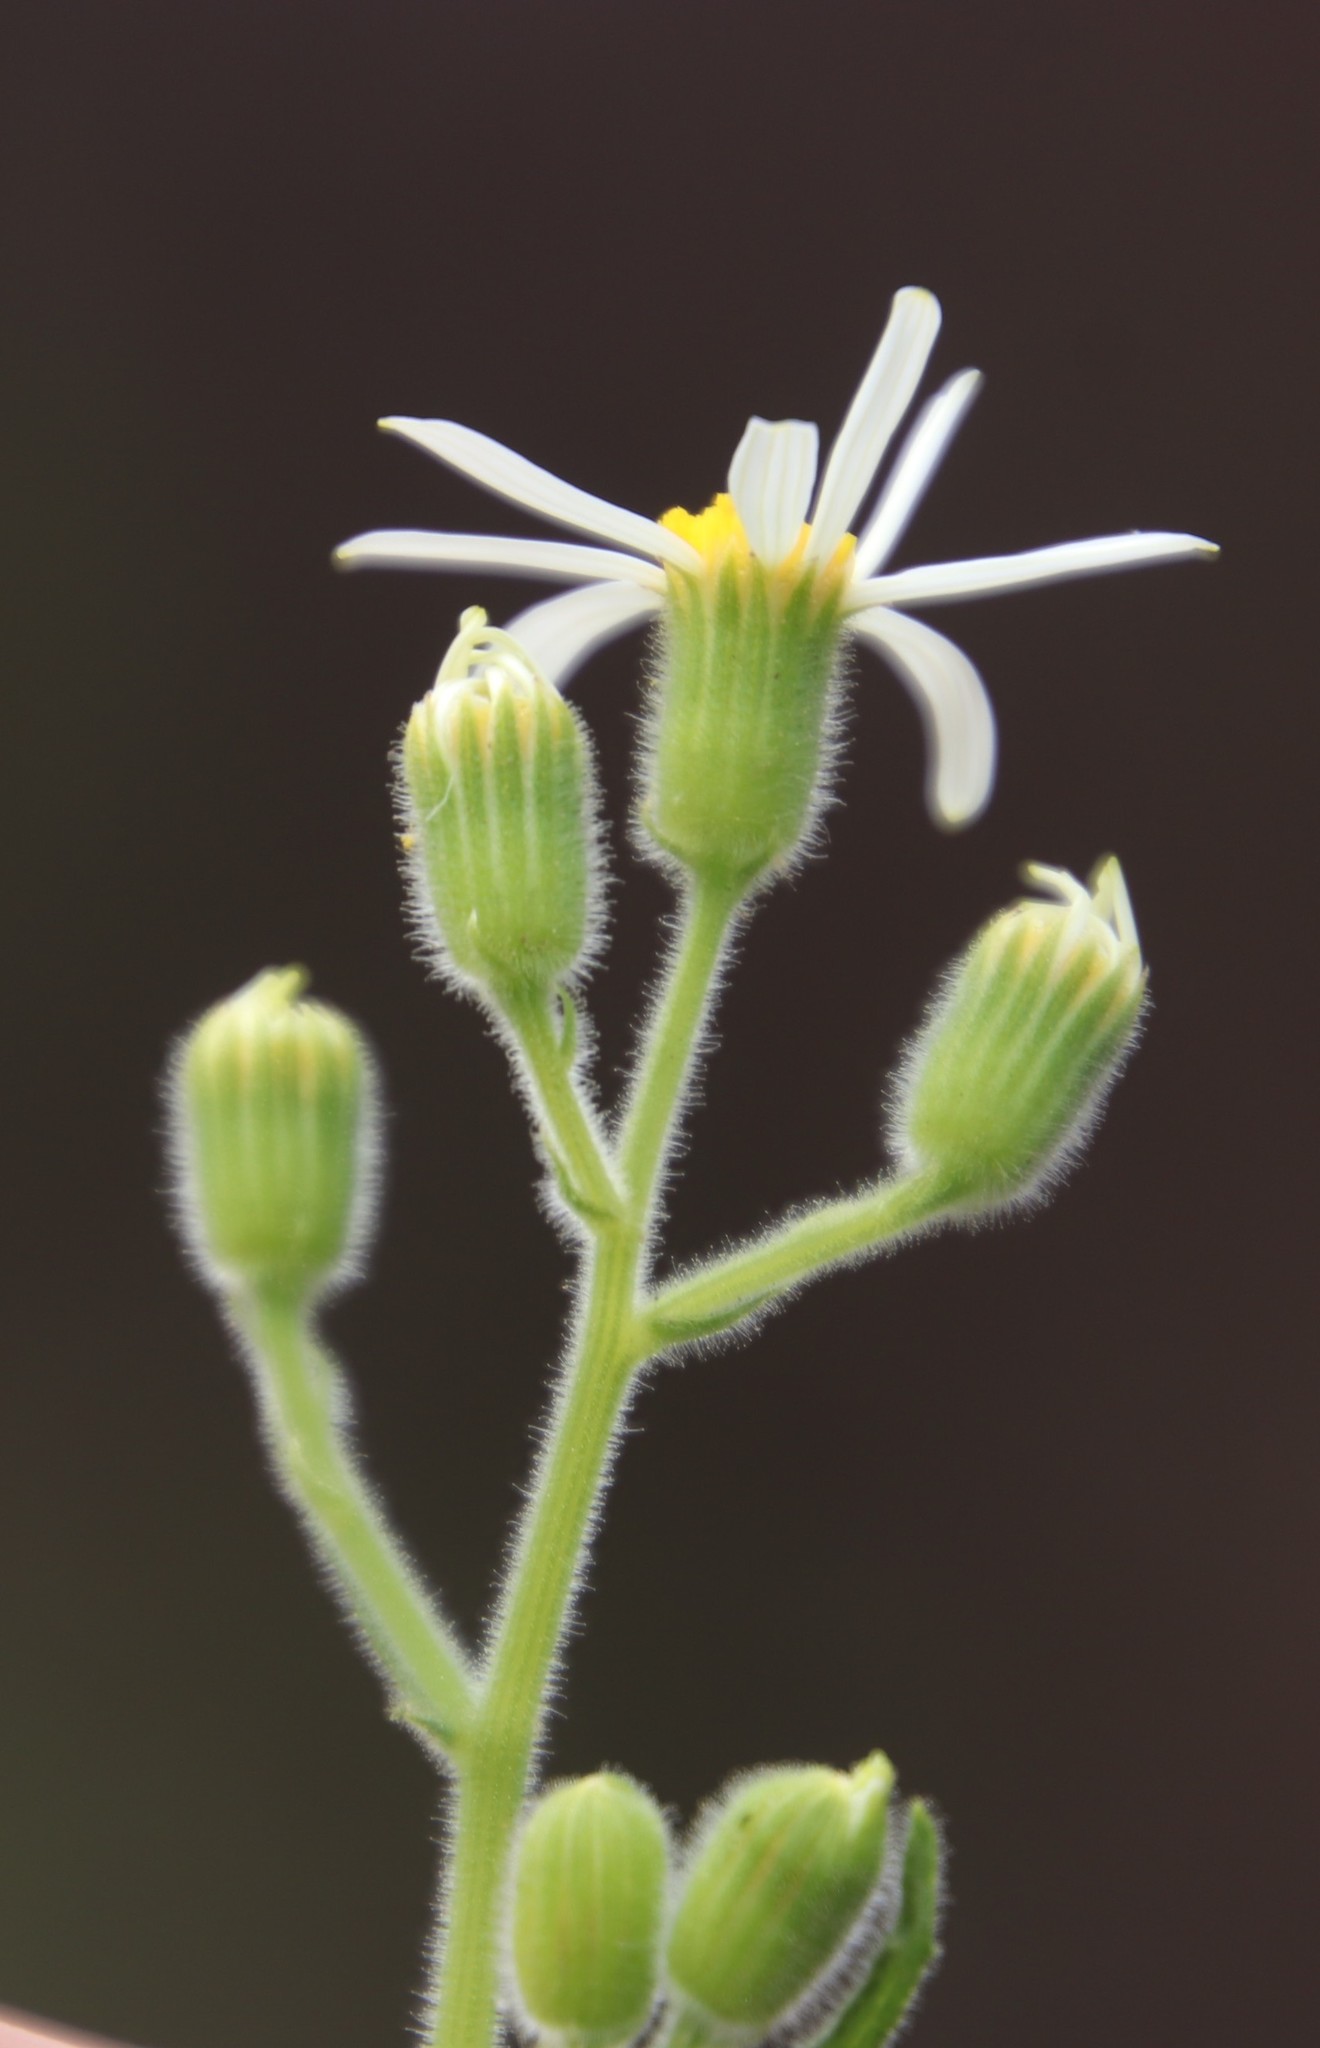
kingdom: Plantae
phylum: Tracheophyta
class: Magnoliopsida
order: Asterales
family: Asteraceae
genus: Senecio
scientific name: Senecio arenarius
